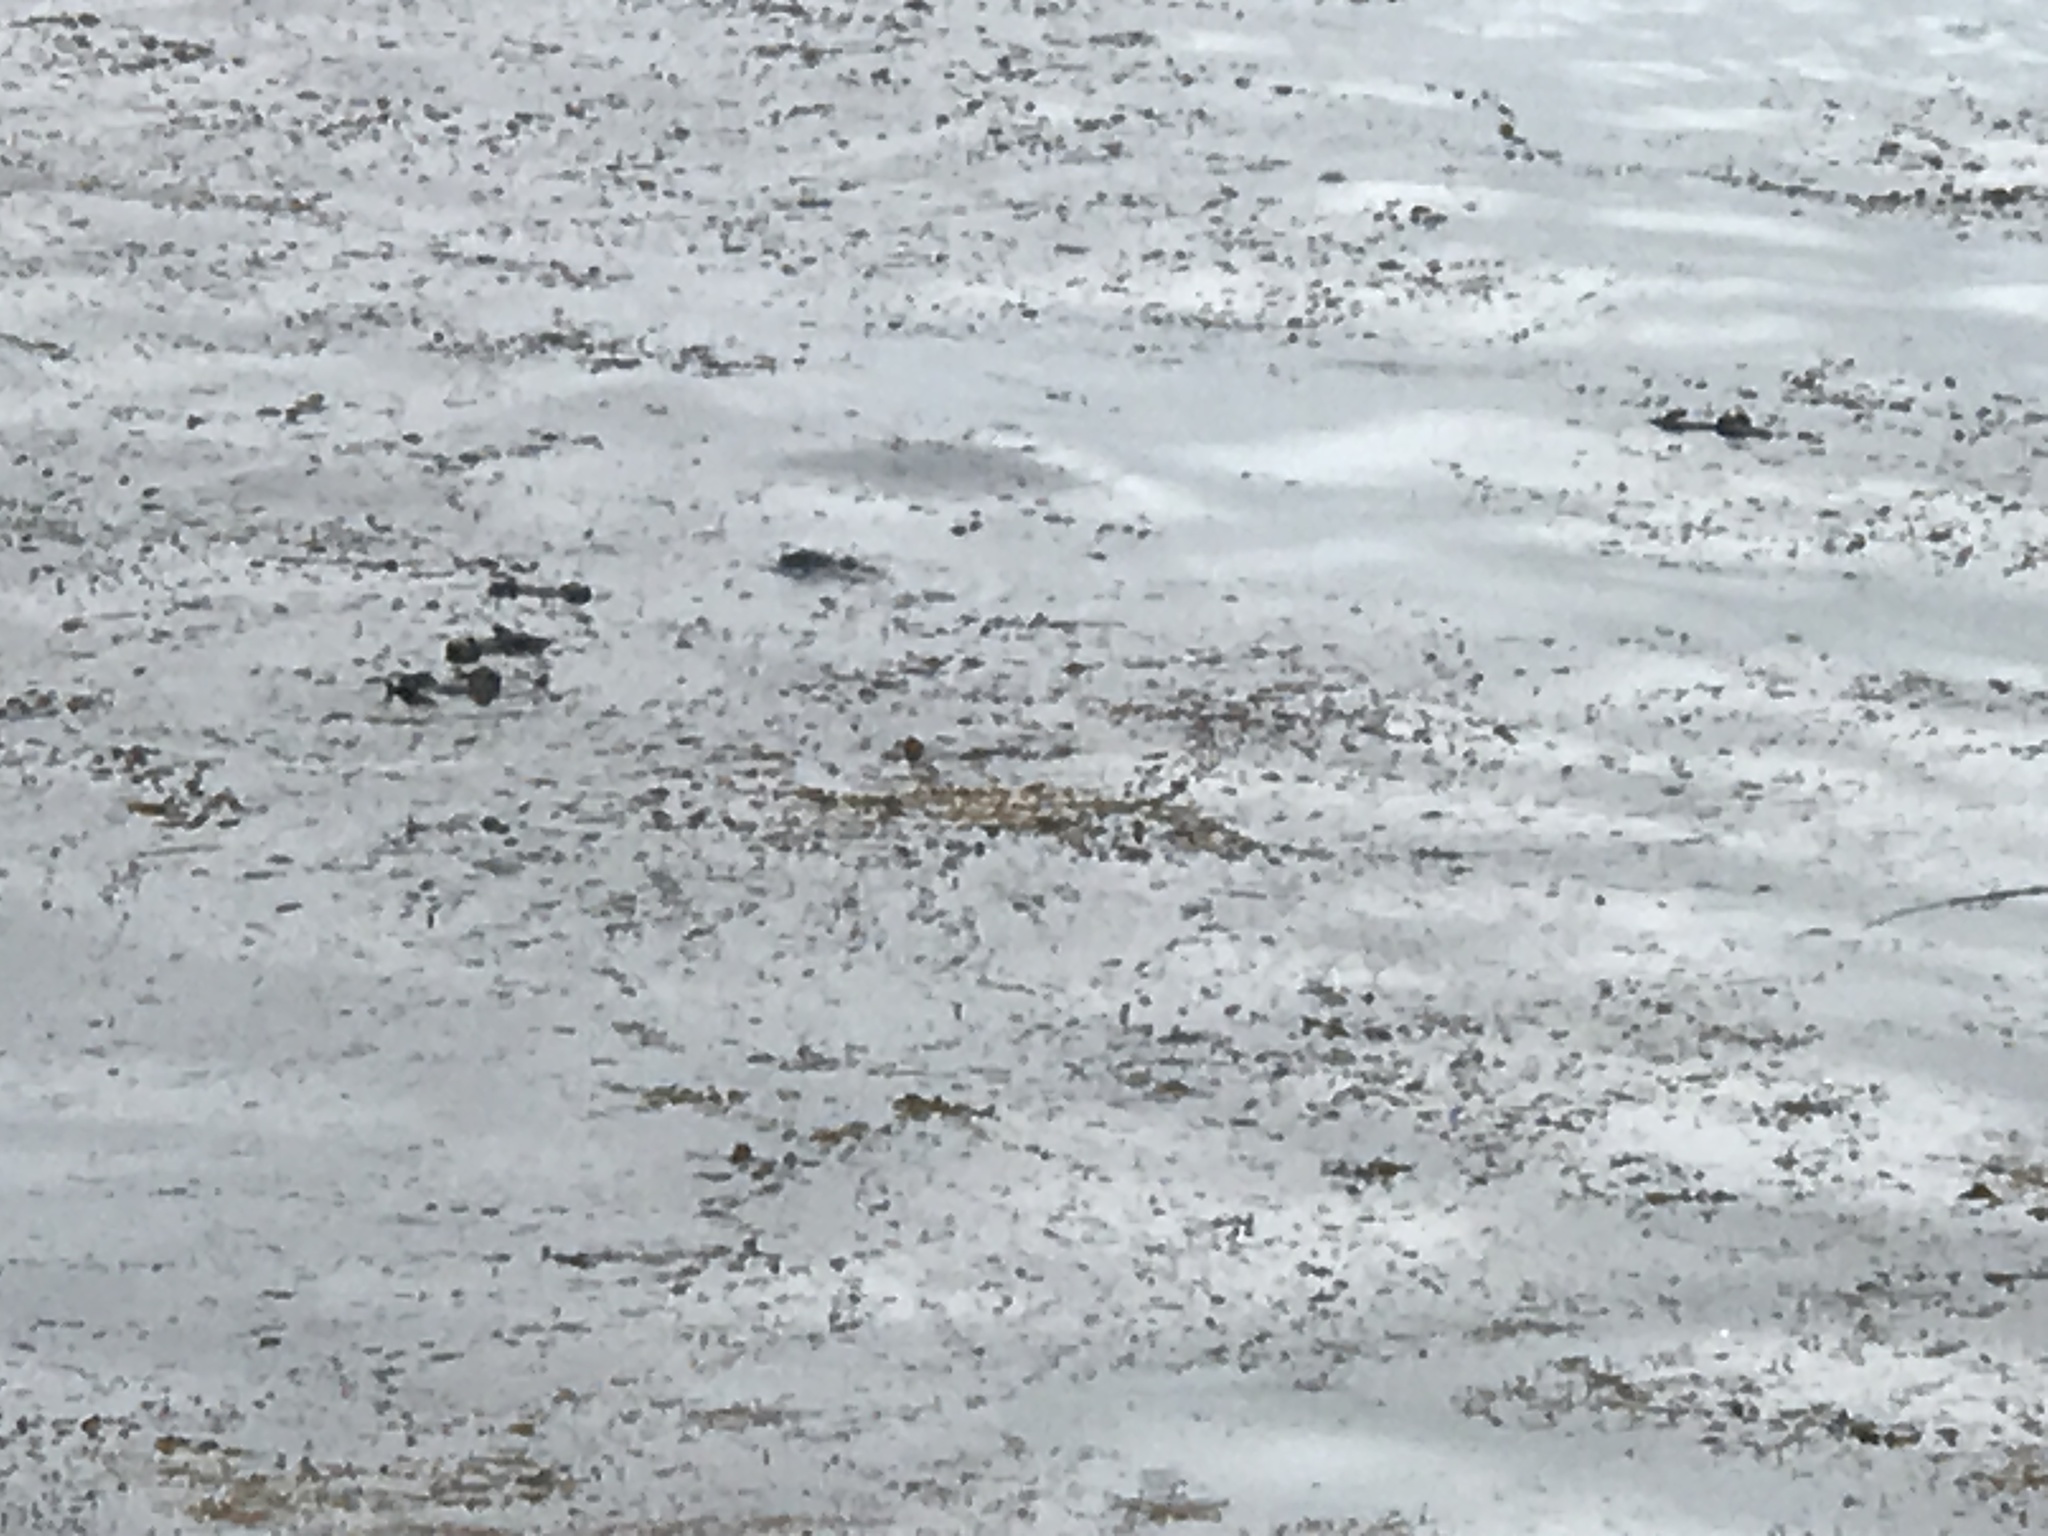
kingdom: Animalia
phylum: Chordata
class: Mammalia
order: Carnivora
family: Mustelidae
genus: Enhydra
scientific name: Enhydra lutris
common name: Sea otter
